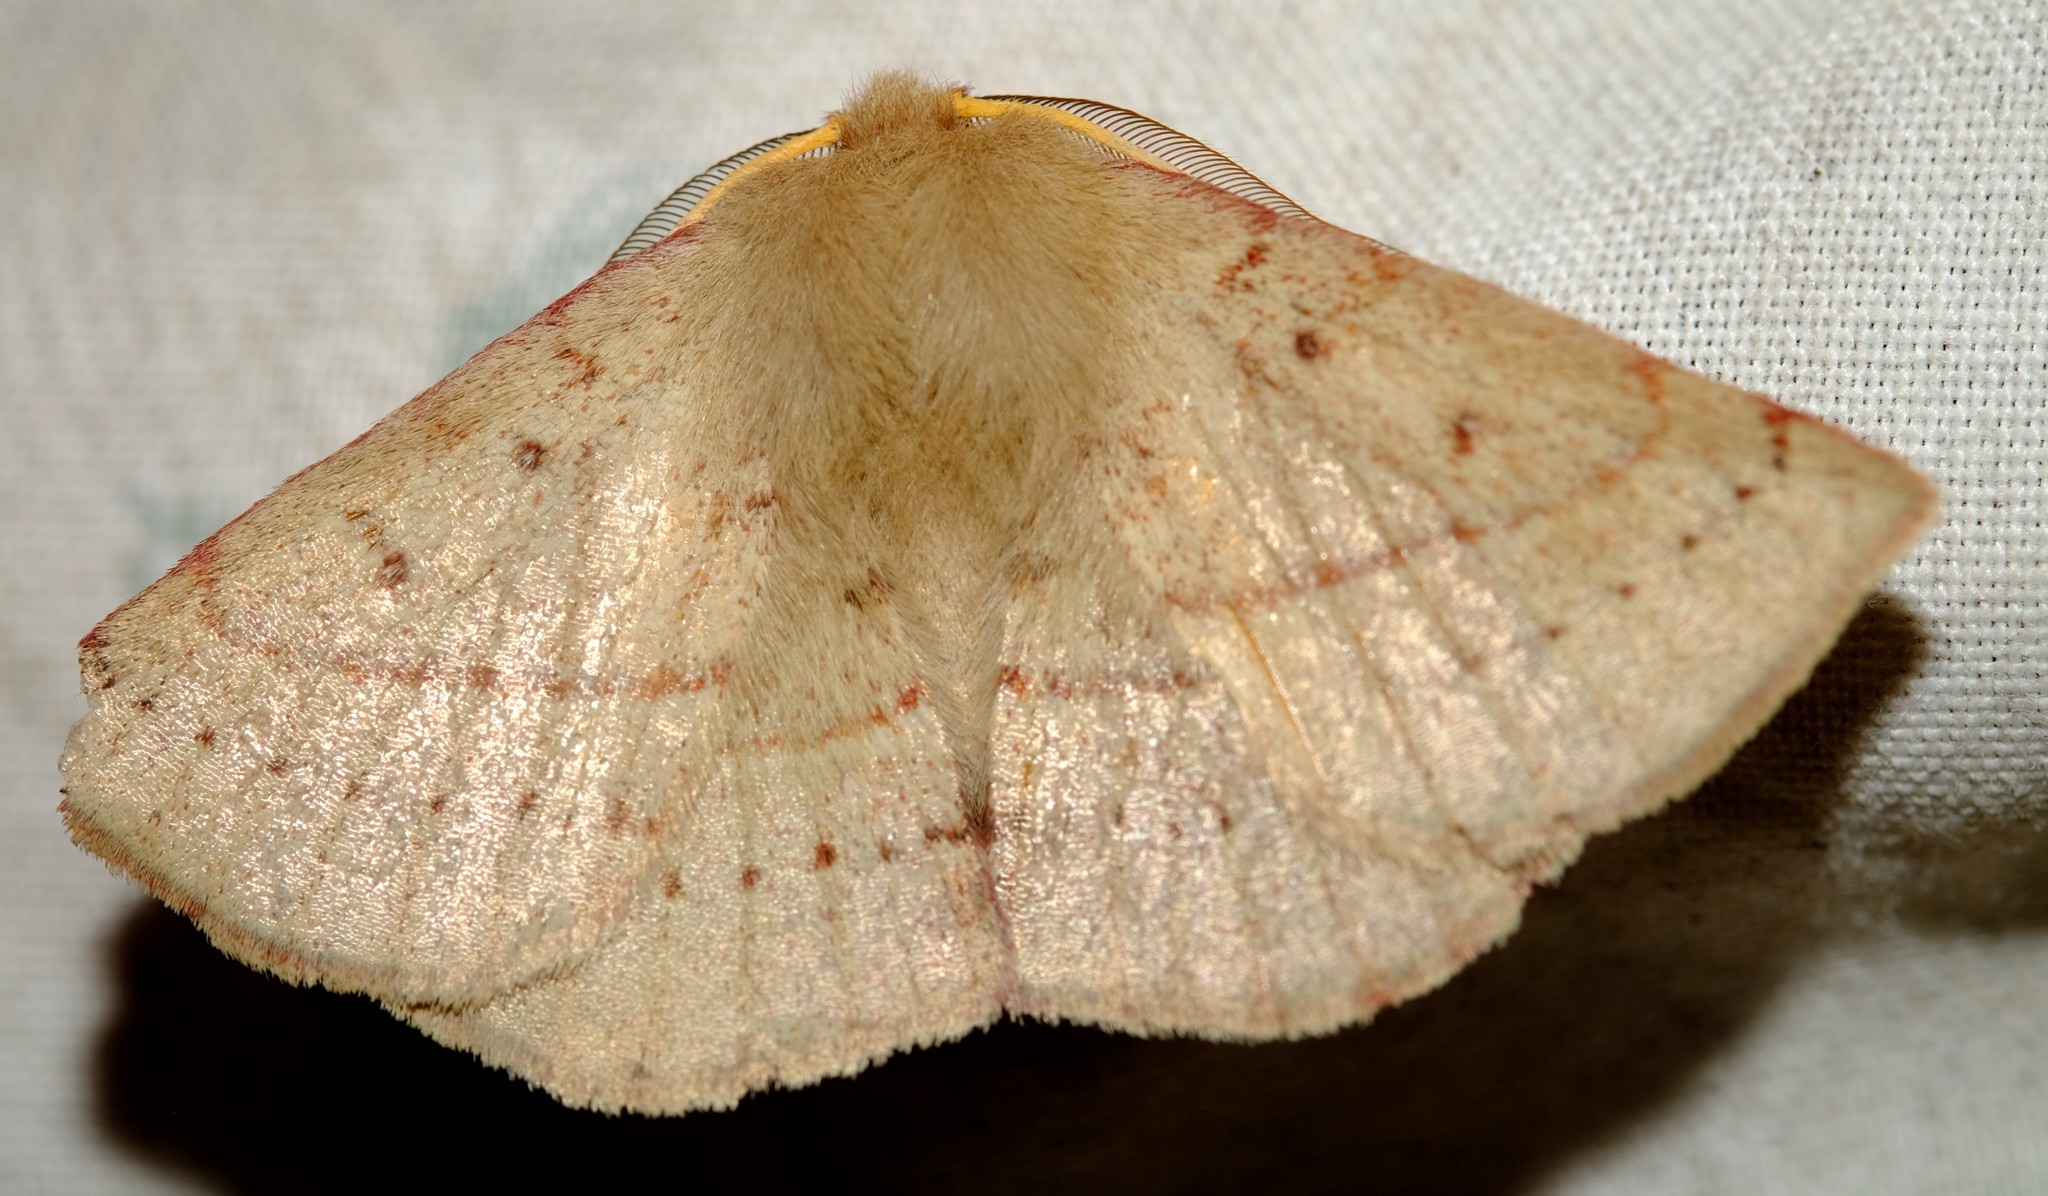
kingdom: Animalia
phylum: Arthropoda
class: Insecta
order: Lepidoptera
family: Anthelidae
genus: Anthela
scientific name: Anthela acuta
